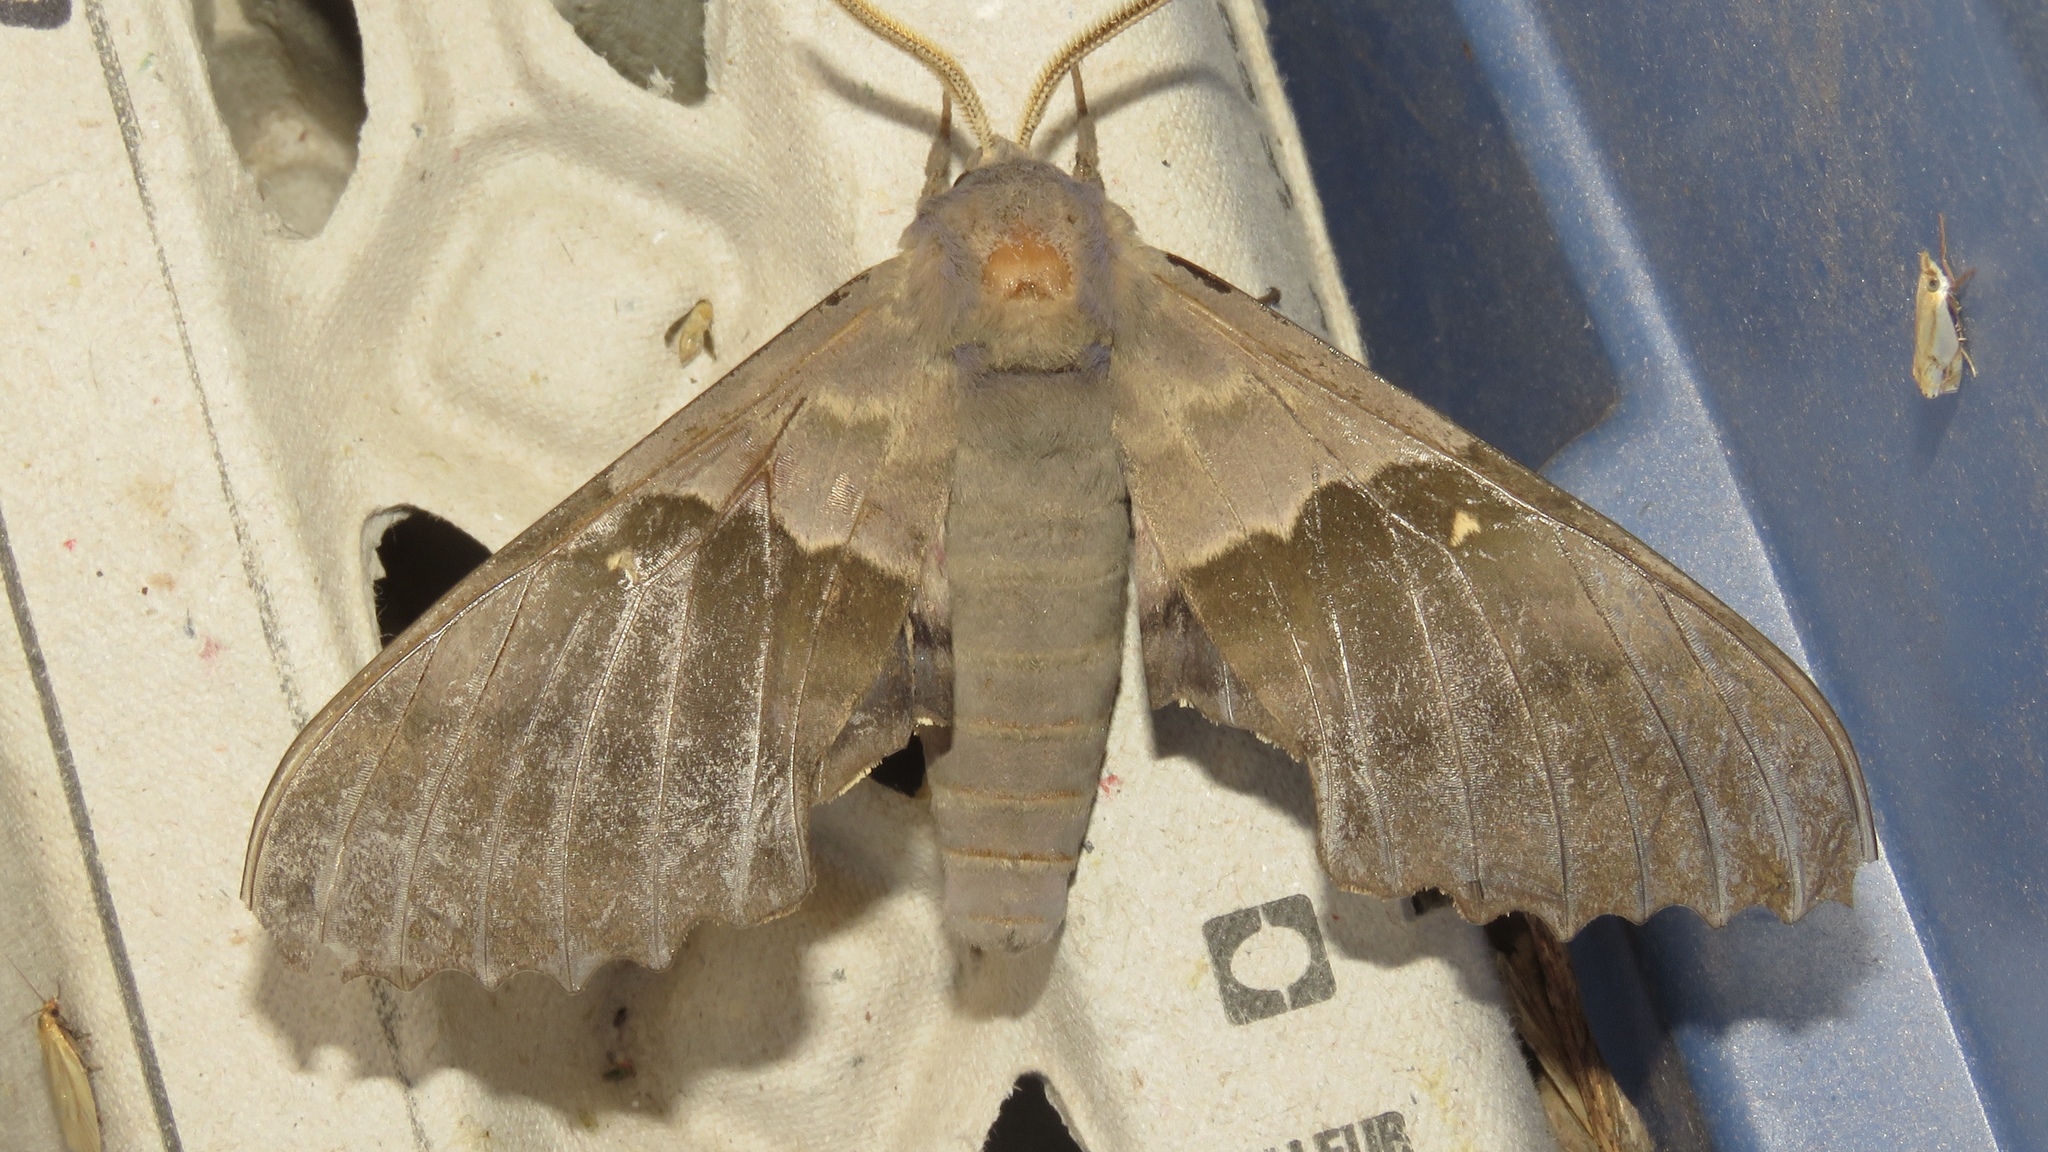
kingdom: Animalia
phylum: Arthropoda
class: Insecta
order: Lepidoptera
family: Sphingidae
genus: Pachysphinx
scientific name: Pachysphinx modesta
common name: Big poplar sphinx
